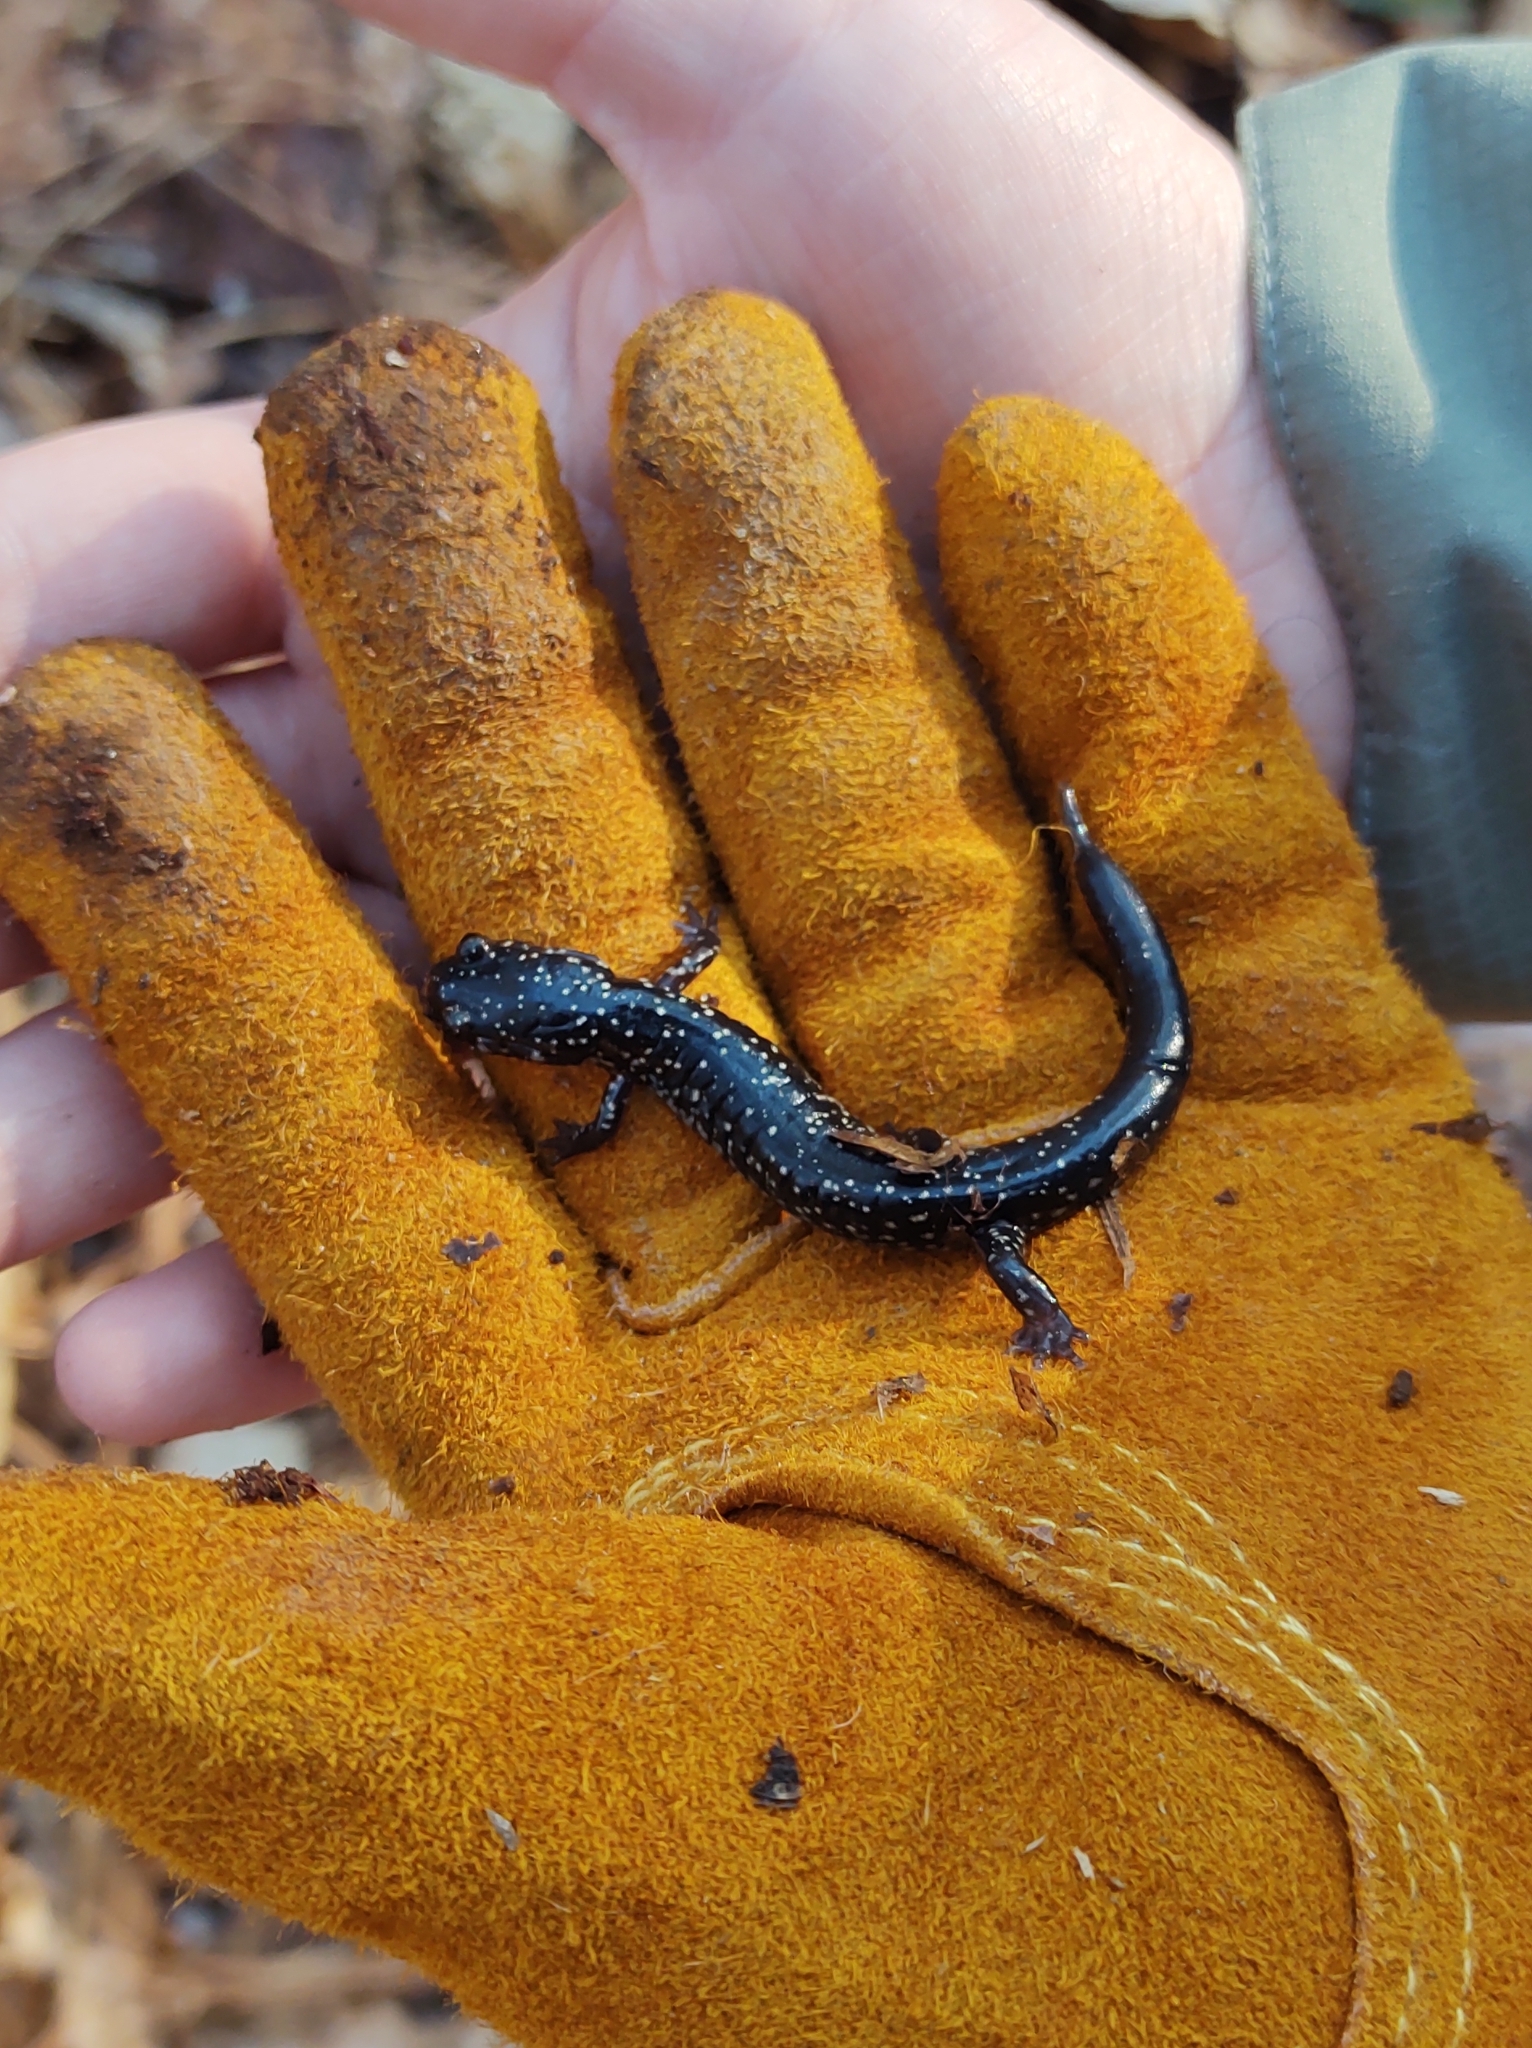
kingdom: Animalia
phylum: Chordata
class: Amphibia
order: Caudata
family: Plethodontidae
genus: Plethodon
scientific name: Plethodon glutinosus
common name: Northern slimy salamander
